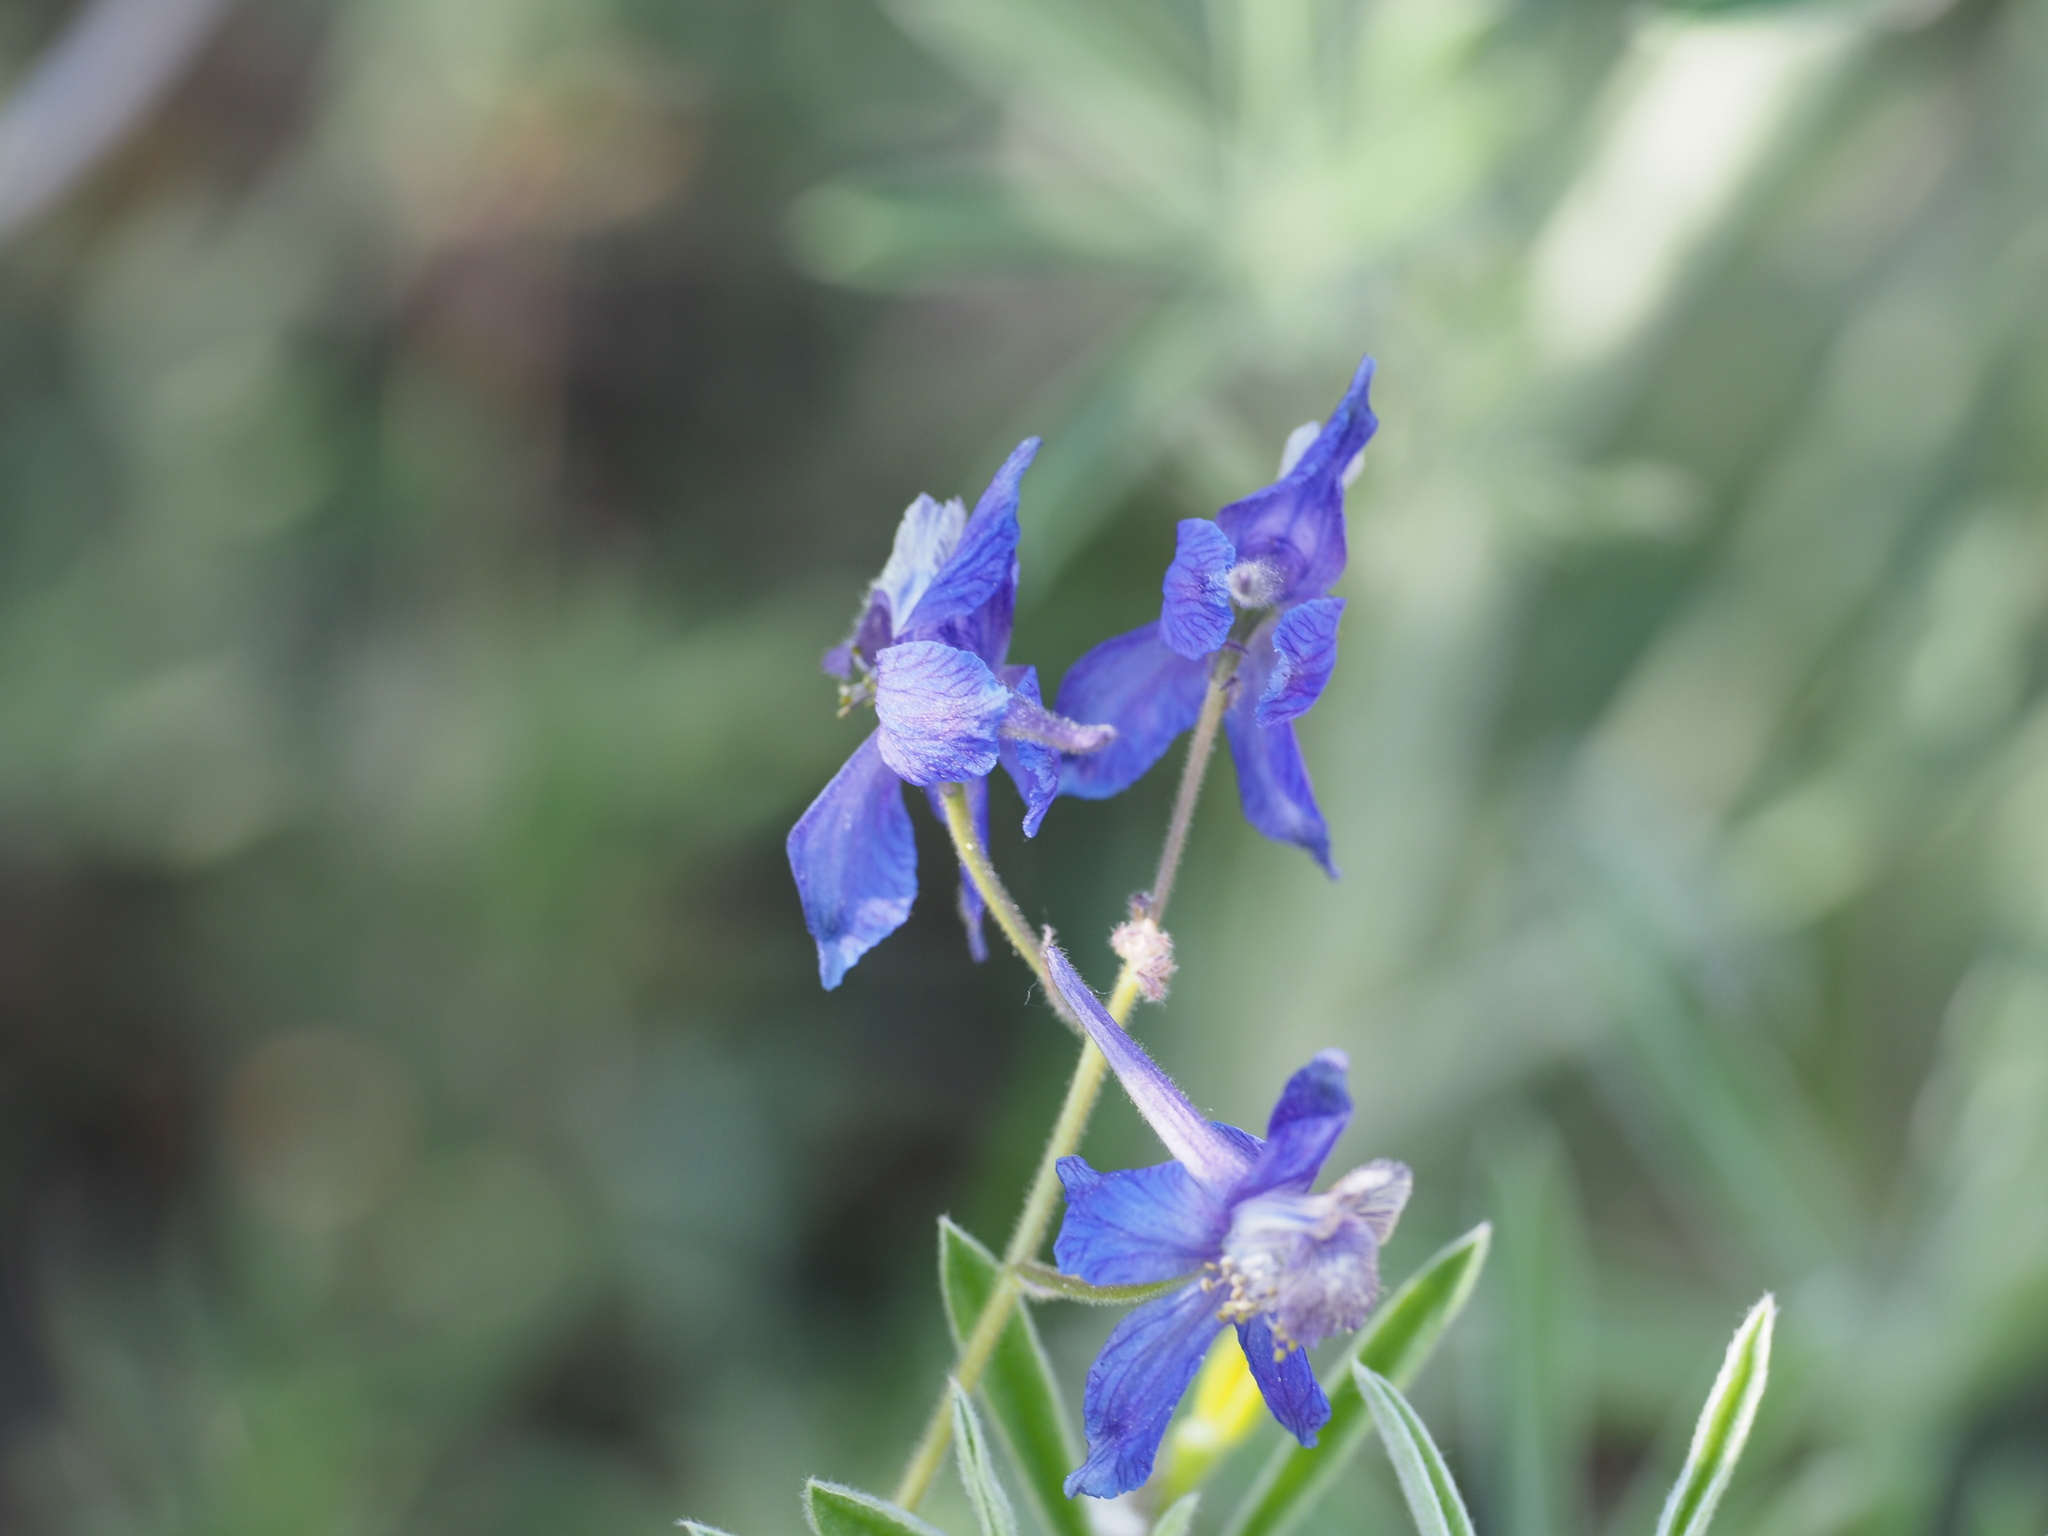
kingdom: Plantae
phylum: Tracheophyta
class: Magnoliopsida
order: Ranunculales
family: Ranunculaceae
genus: Delphinium
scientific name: Delphinium nuttallianum
